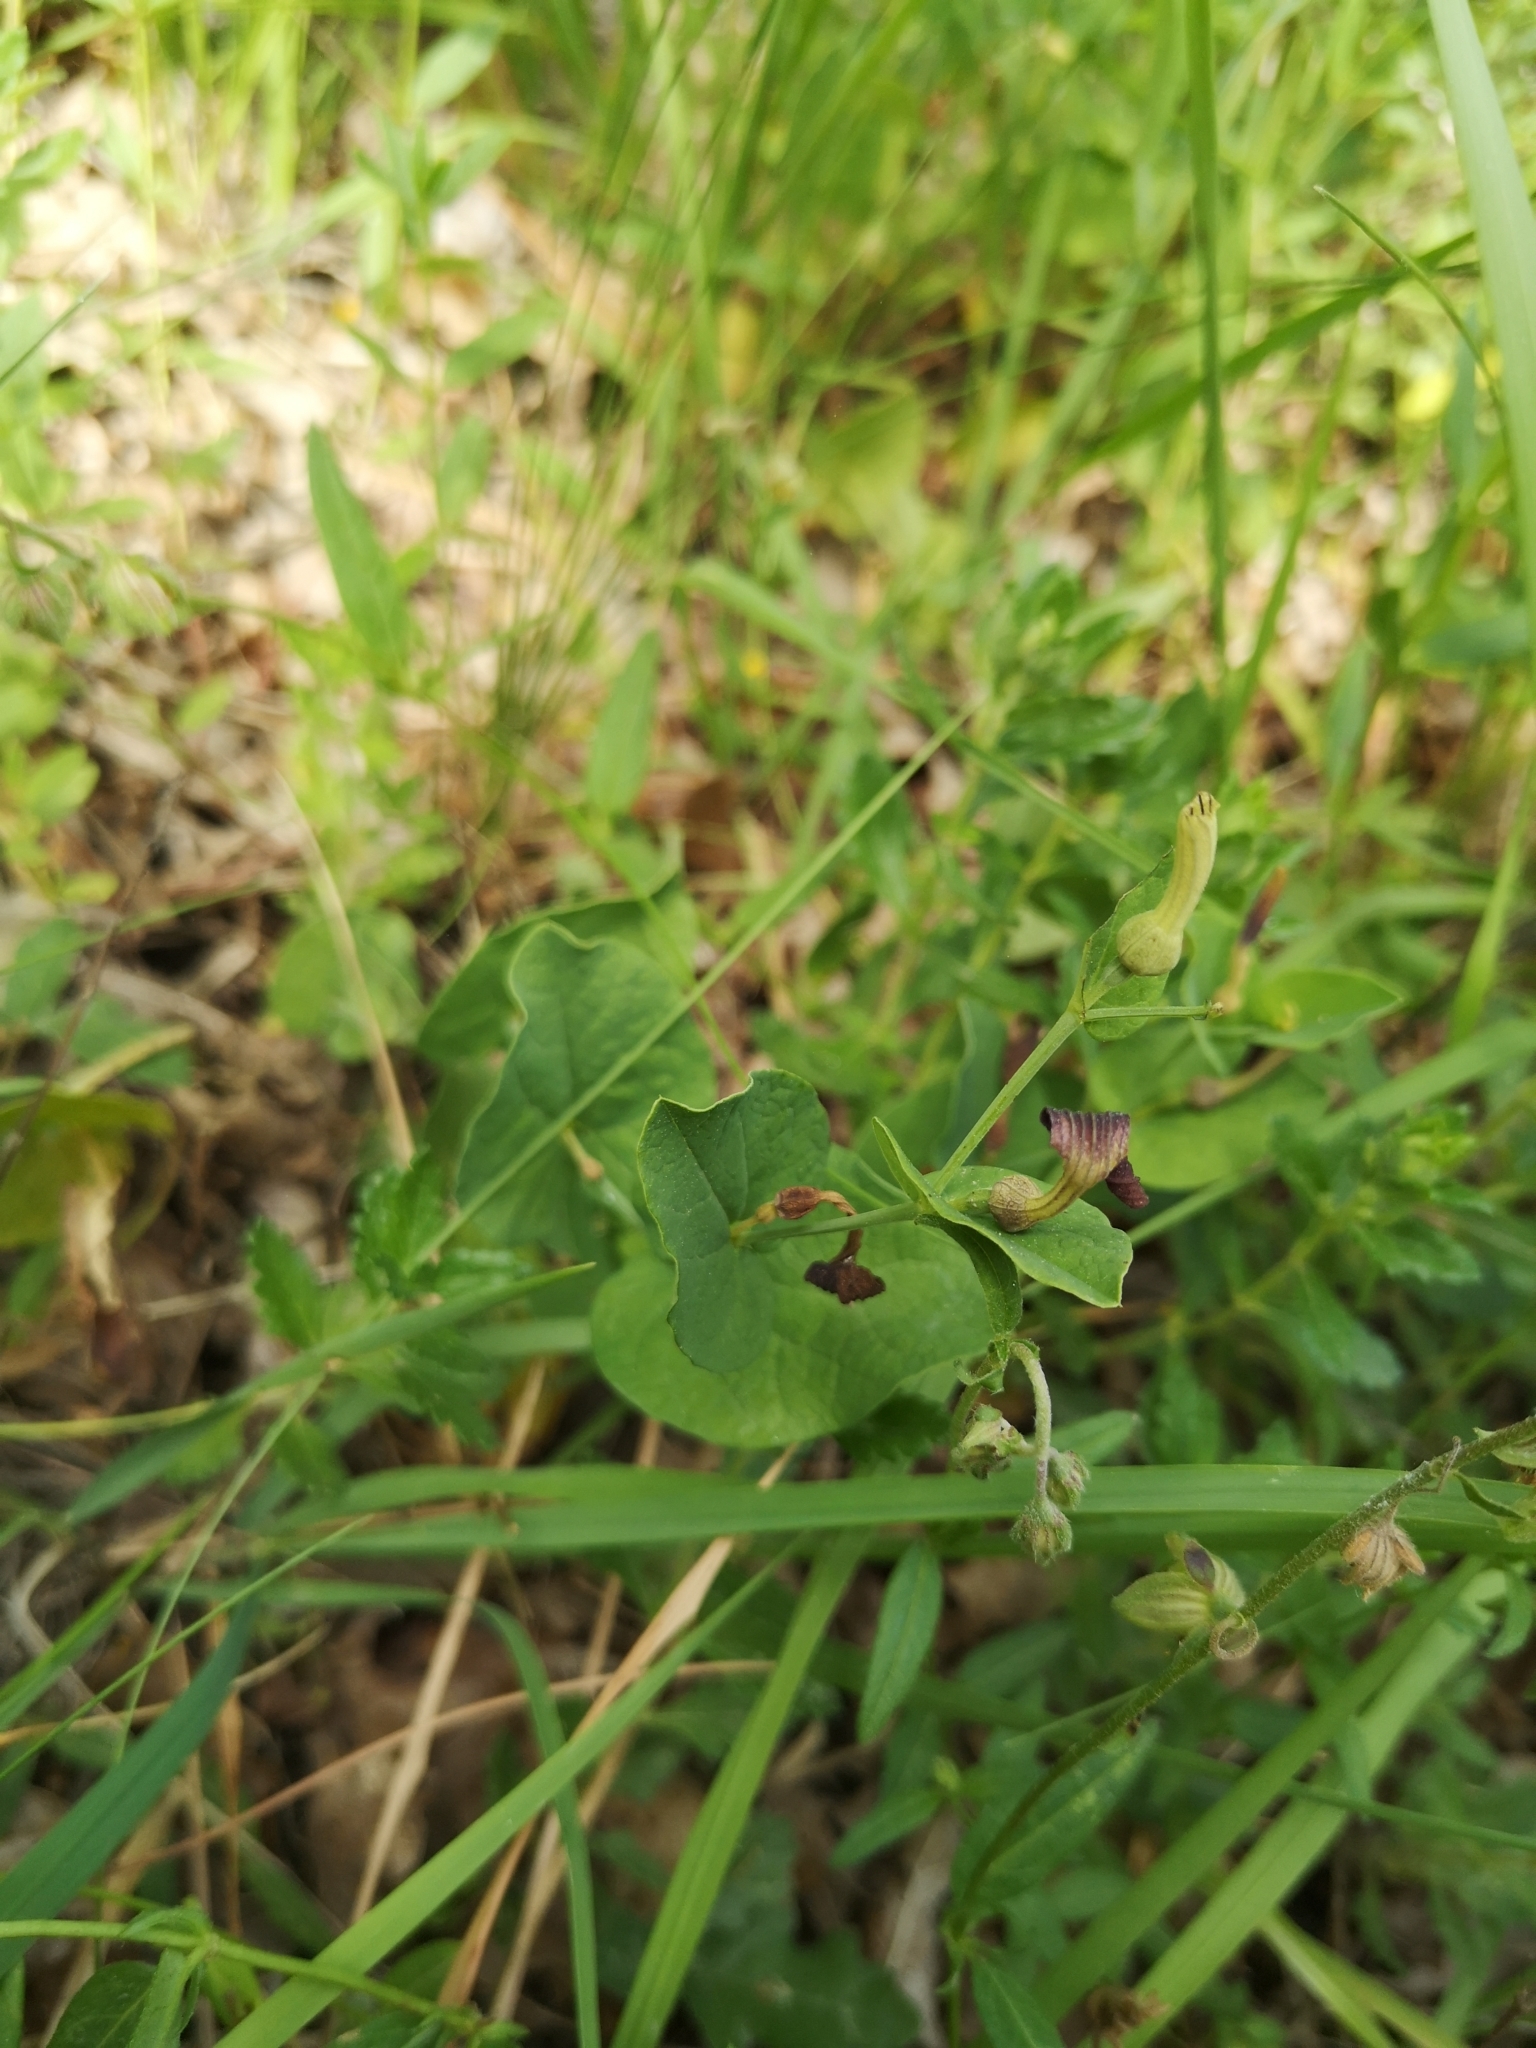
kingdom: Plantae
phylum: Tracheophyta
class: Magnoliopsida
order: Piperales
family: Aristolochiaceae
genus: Aristolochia
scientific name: Aristolochia rotunda
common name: Smearwort
